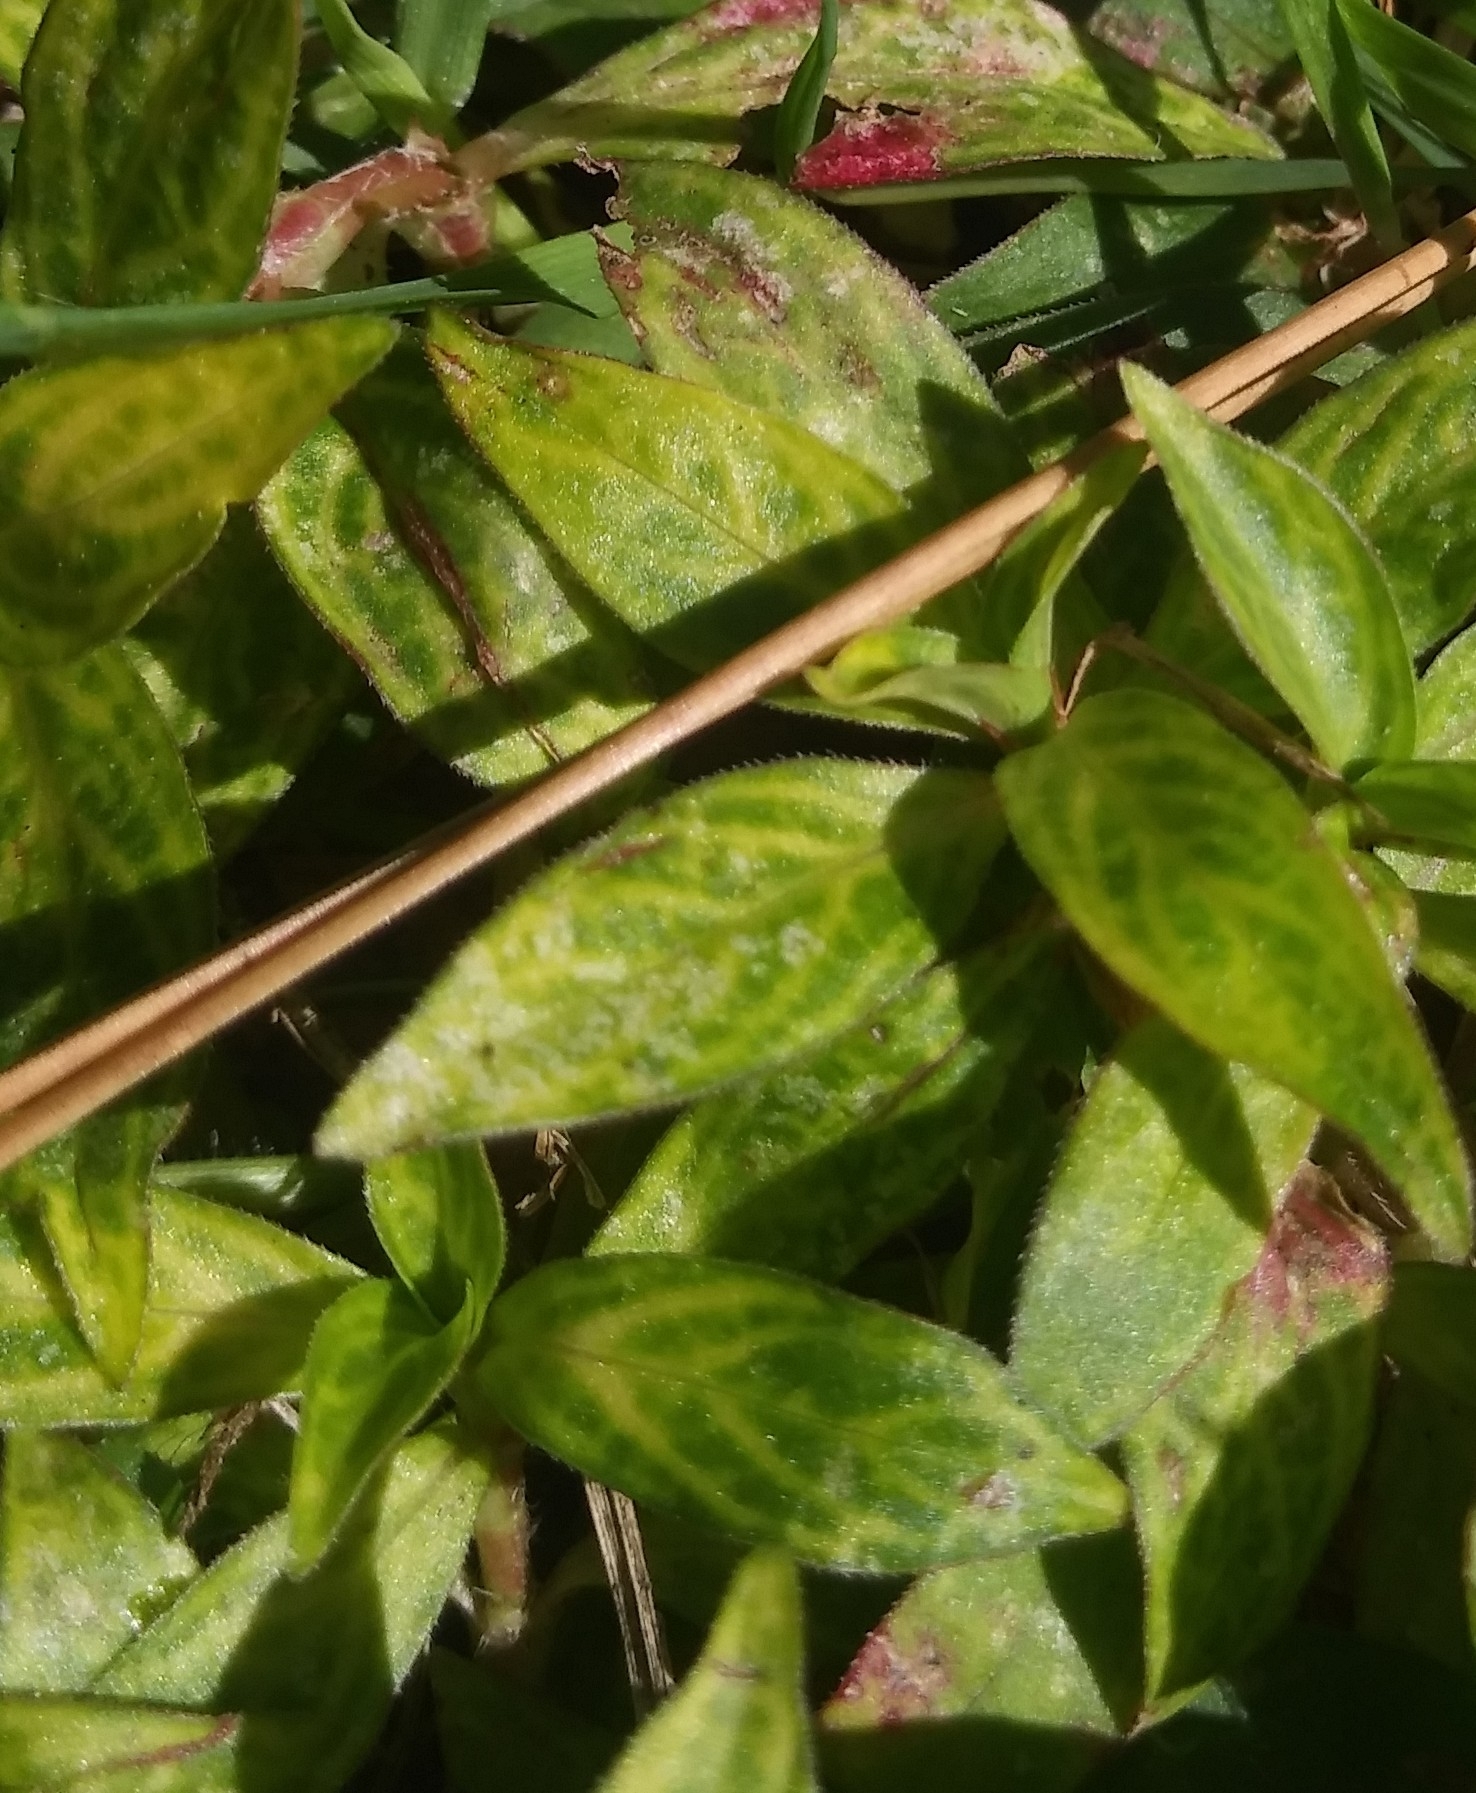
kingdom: Viruses
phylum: Kitrinoviricota
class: Alsuviricetes
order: Martellivirales
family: Closteroviridae
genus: Crinivirus
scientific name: Crinivirus Diodia vein chlorosis virus
